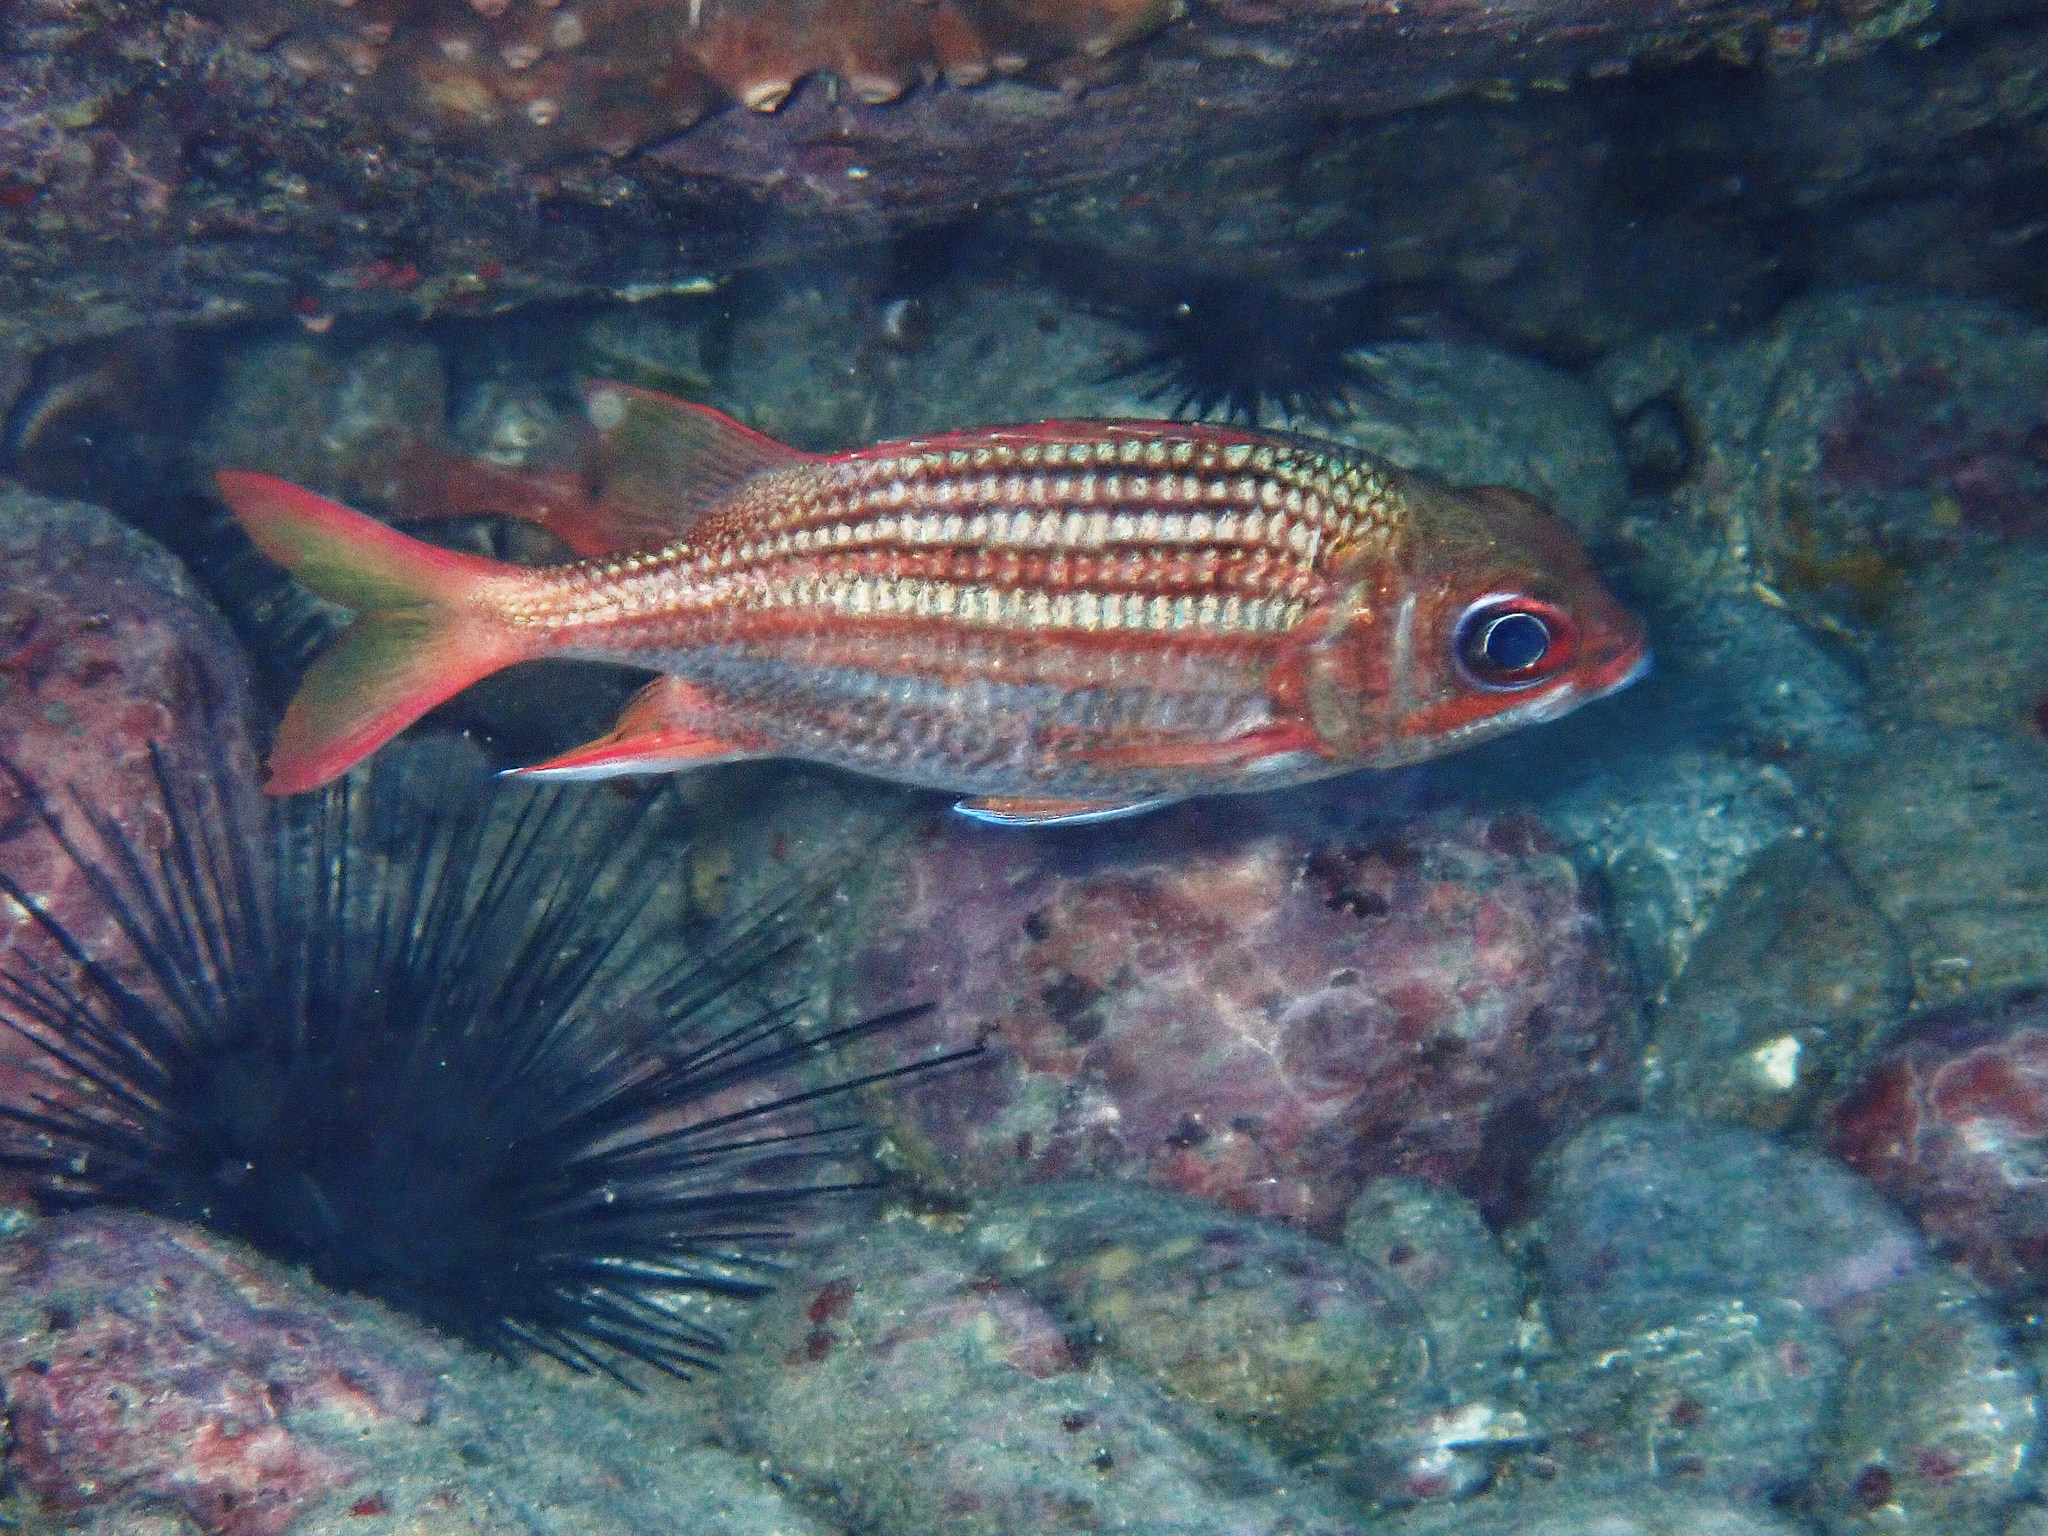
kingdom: Animalia
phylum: Chordata
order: Beryciformes
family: Holocentridae
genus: Neoniphon
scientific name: Neoniphon vexillarium
